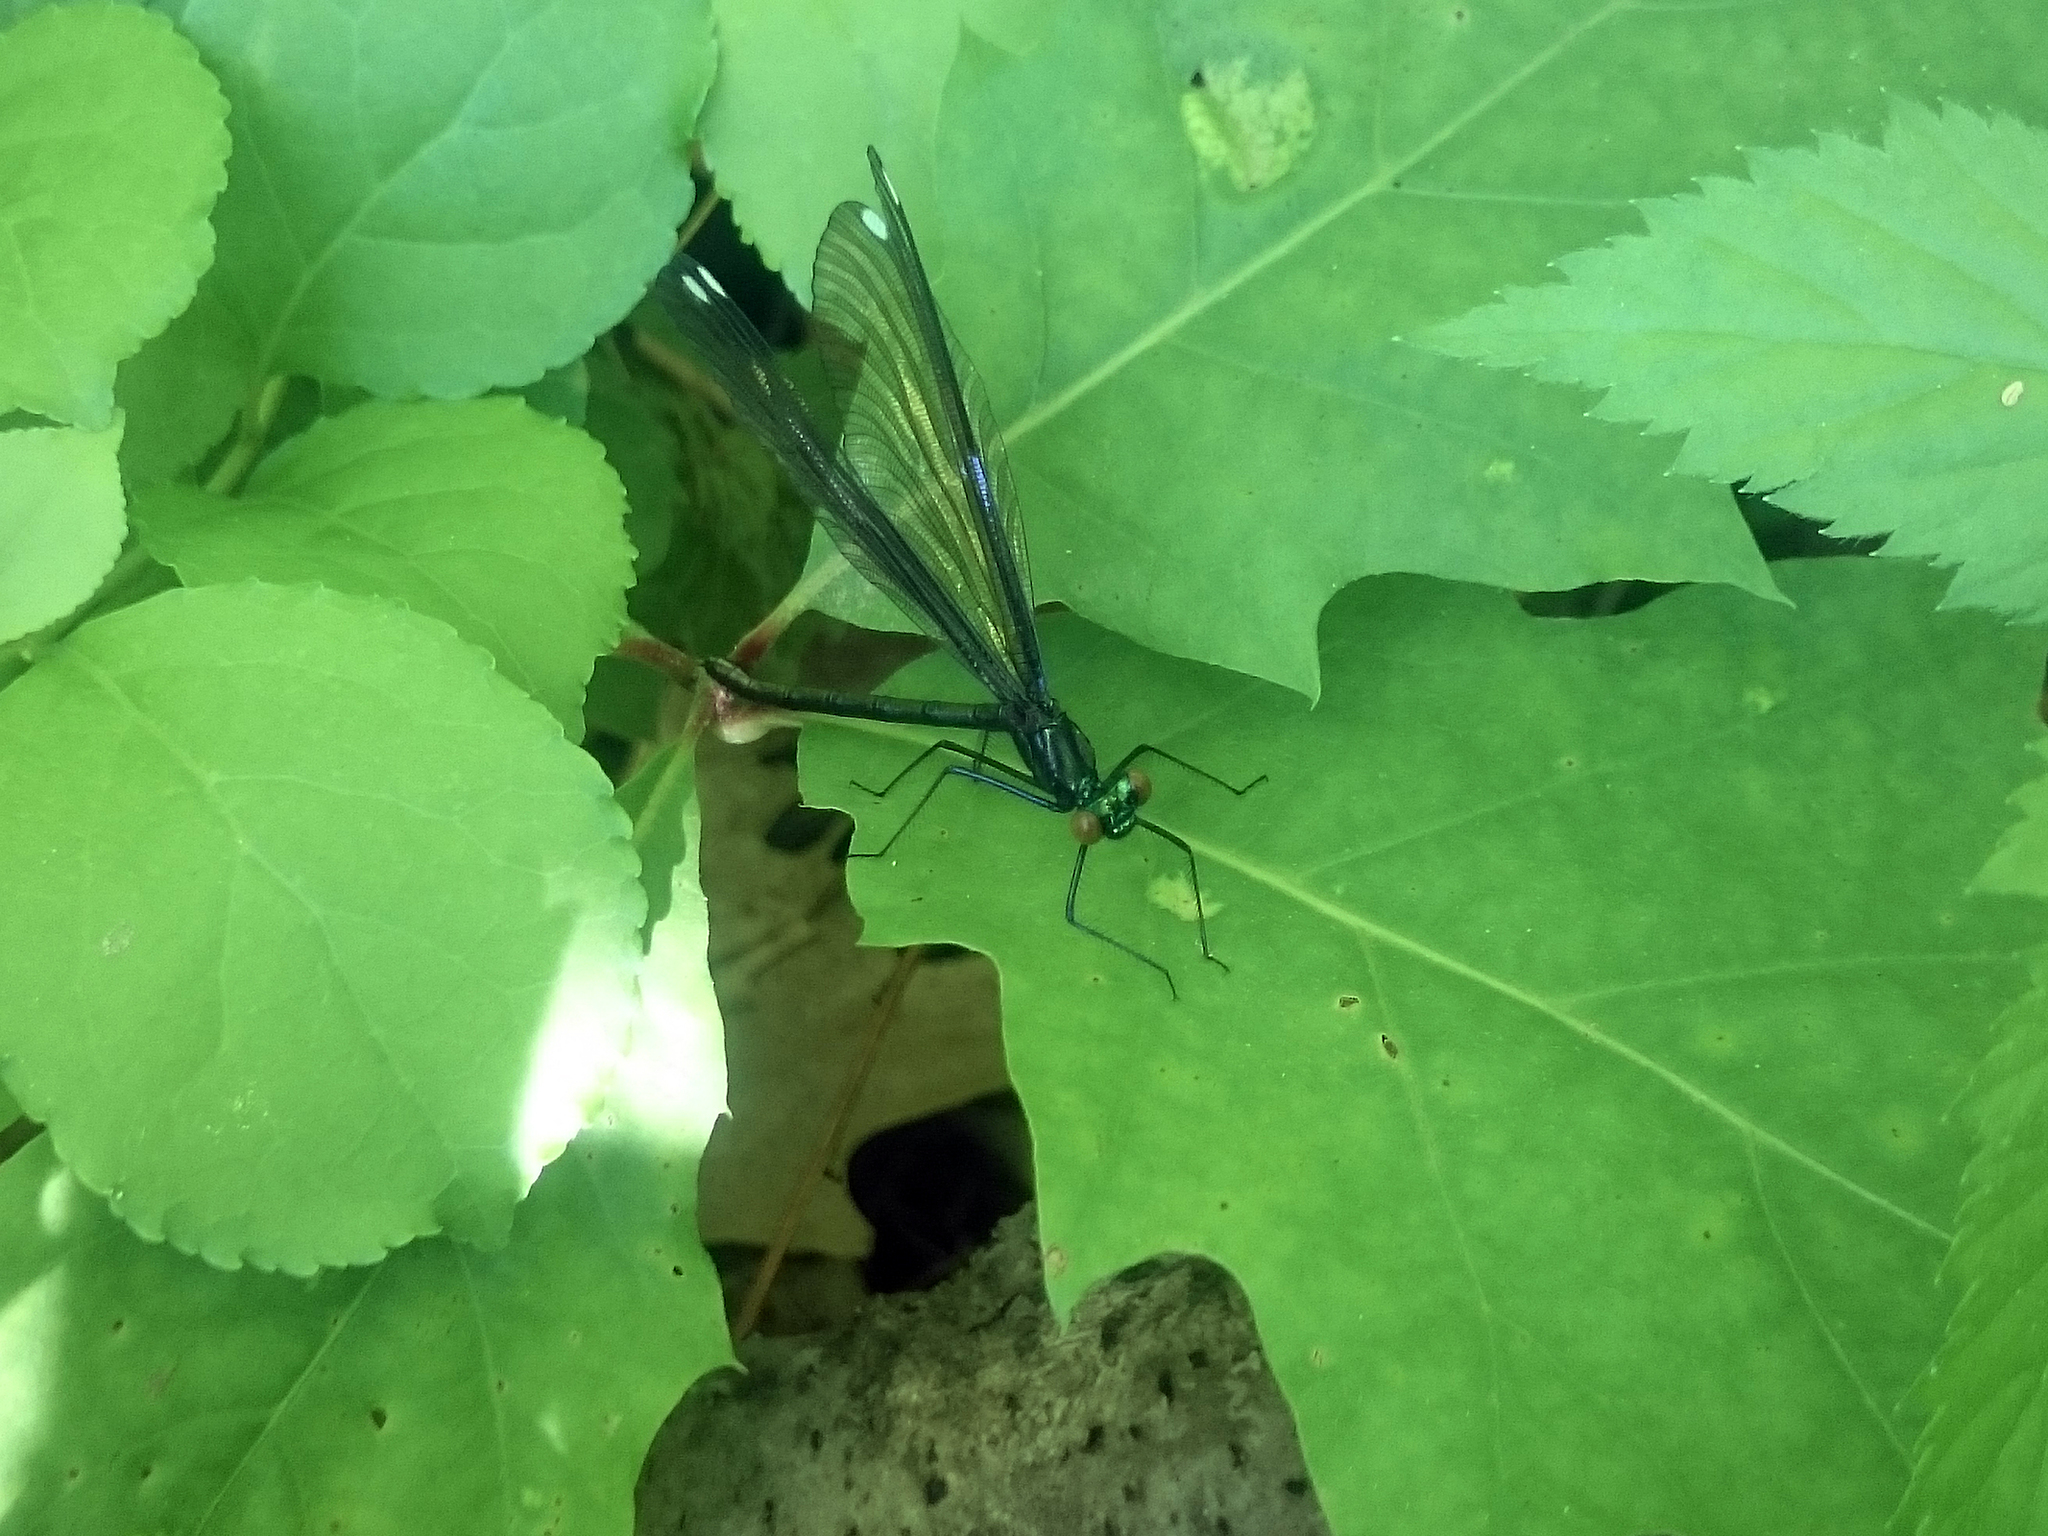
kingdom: Animalia
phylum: Arthropoda
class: Insecta
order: Odonata
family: Calopterygidae
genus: Calopteryx
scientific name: Calopteryx maculata
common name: Ebony jewelwing
